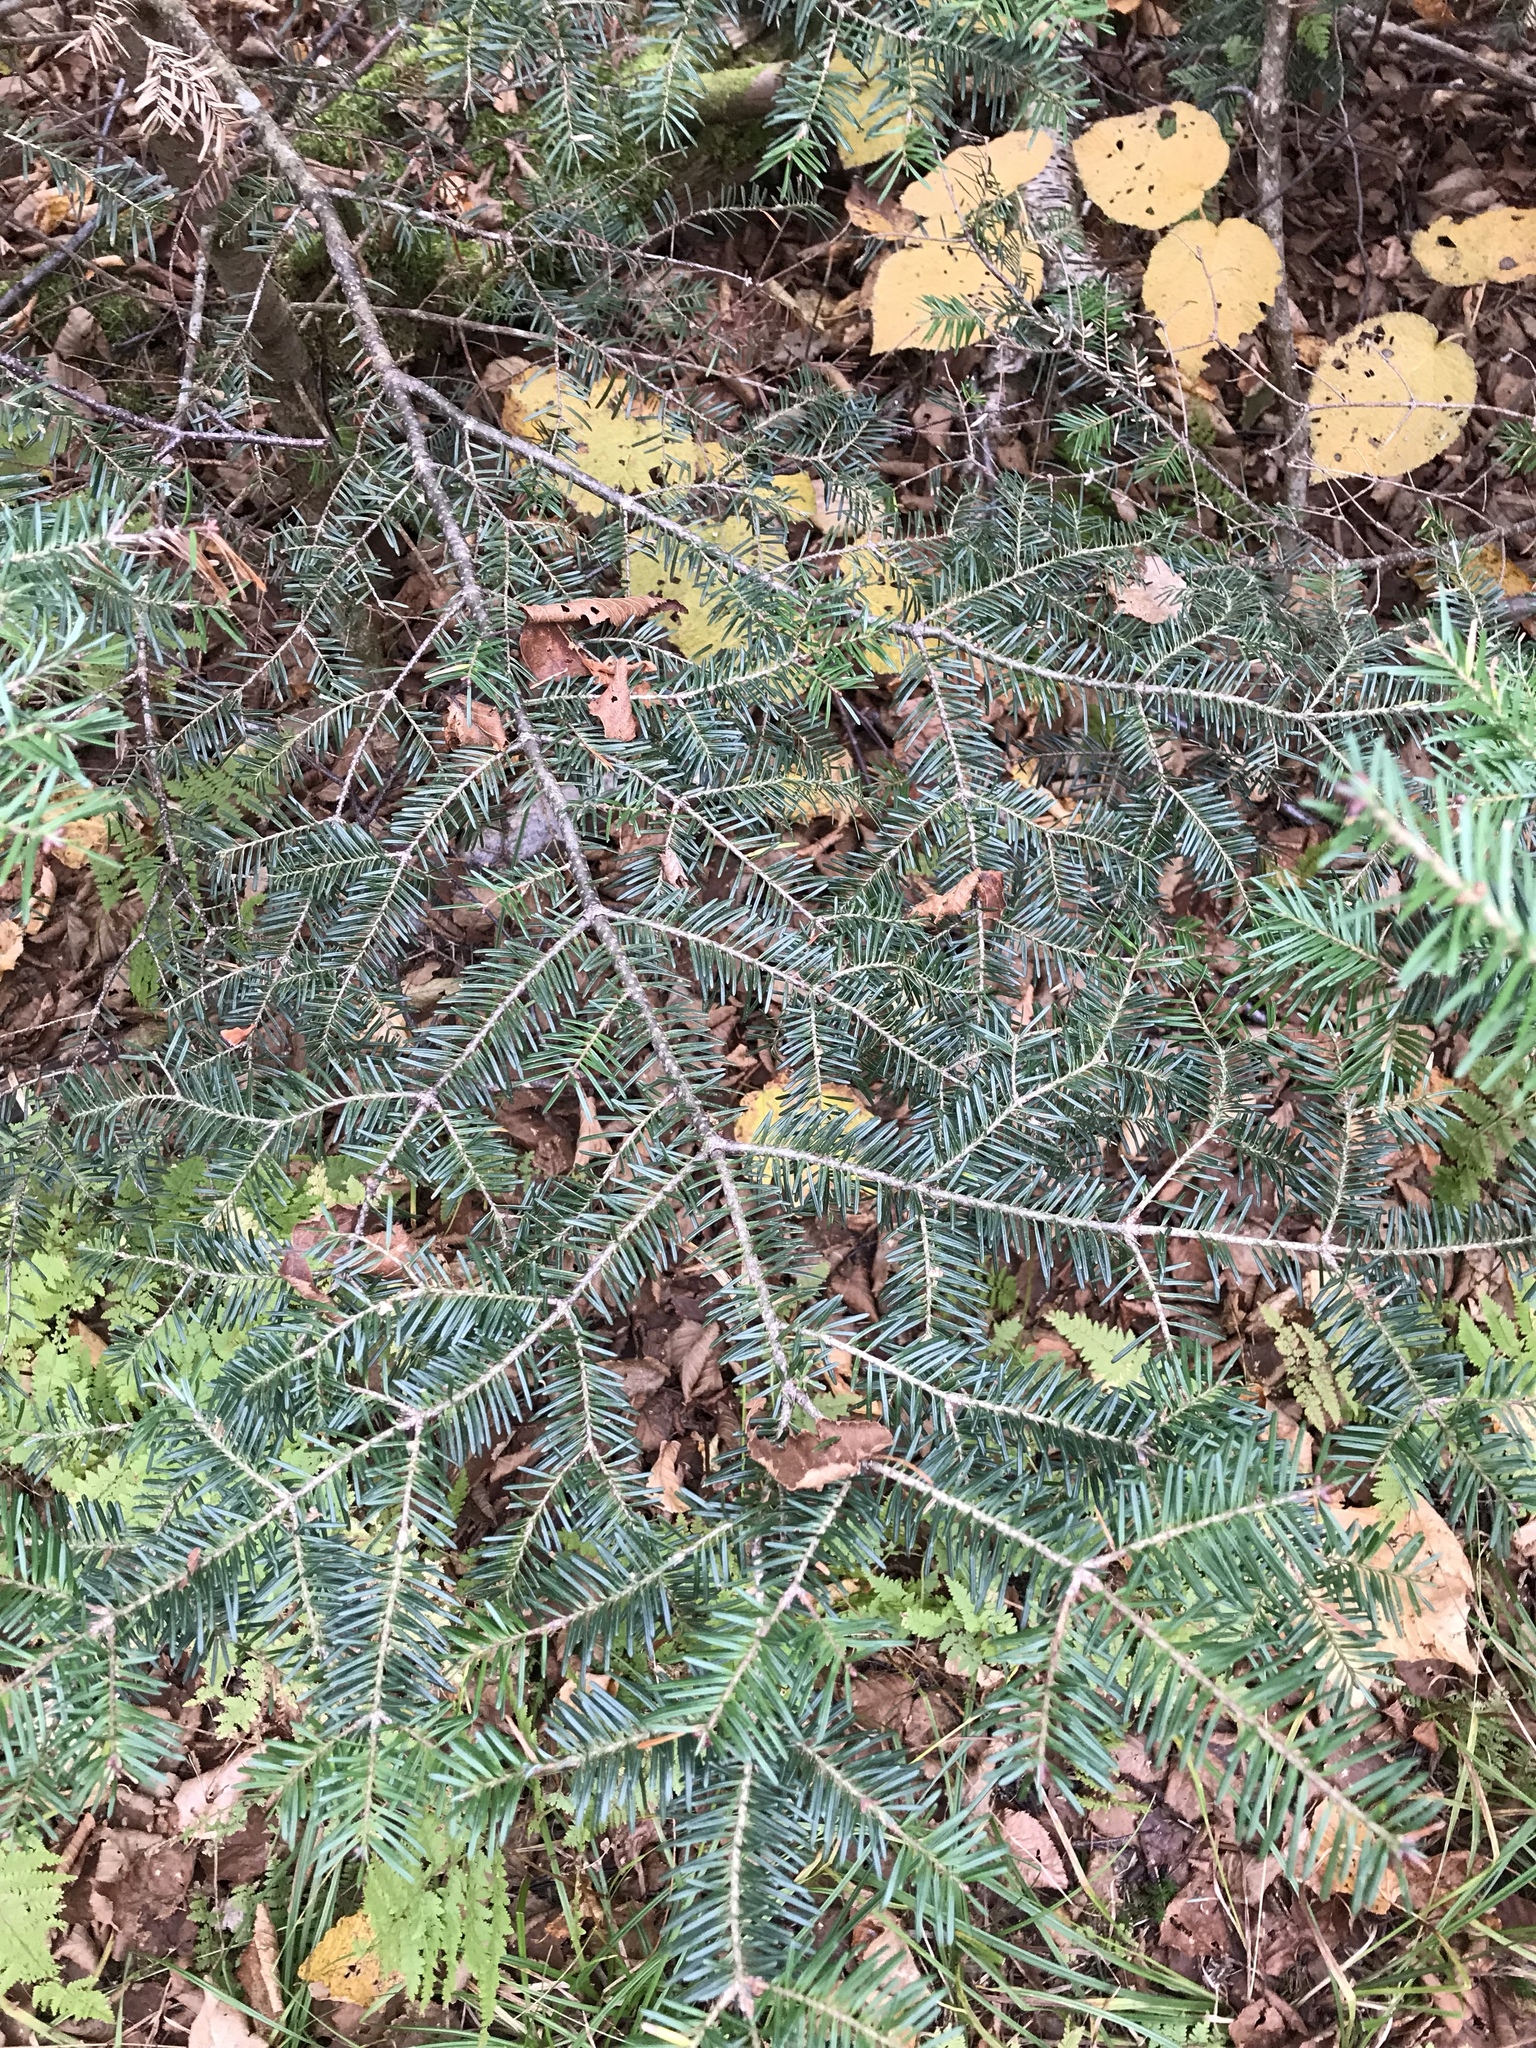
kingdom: Plantae
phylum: Tracheophyta
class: Pinopsida
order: Pinales
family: Pinaceae
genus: Abies
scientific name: Abies balsamea
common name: Balsam fir
